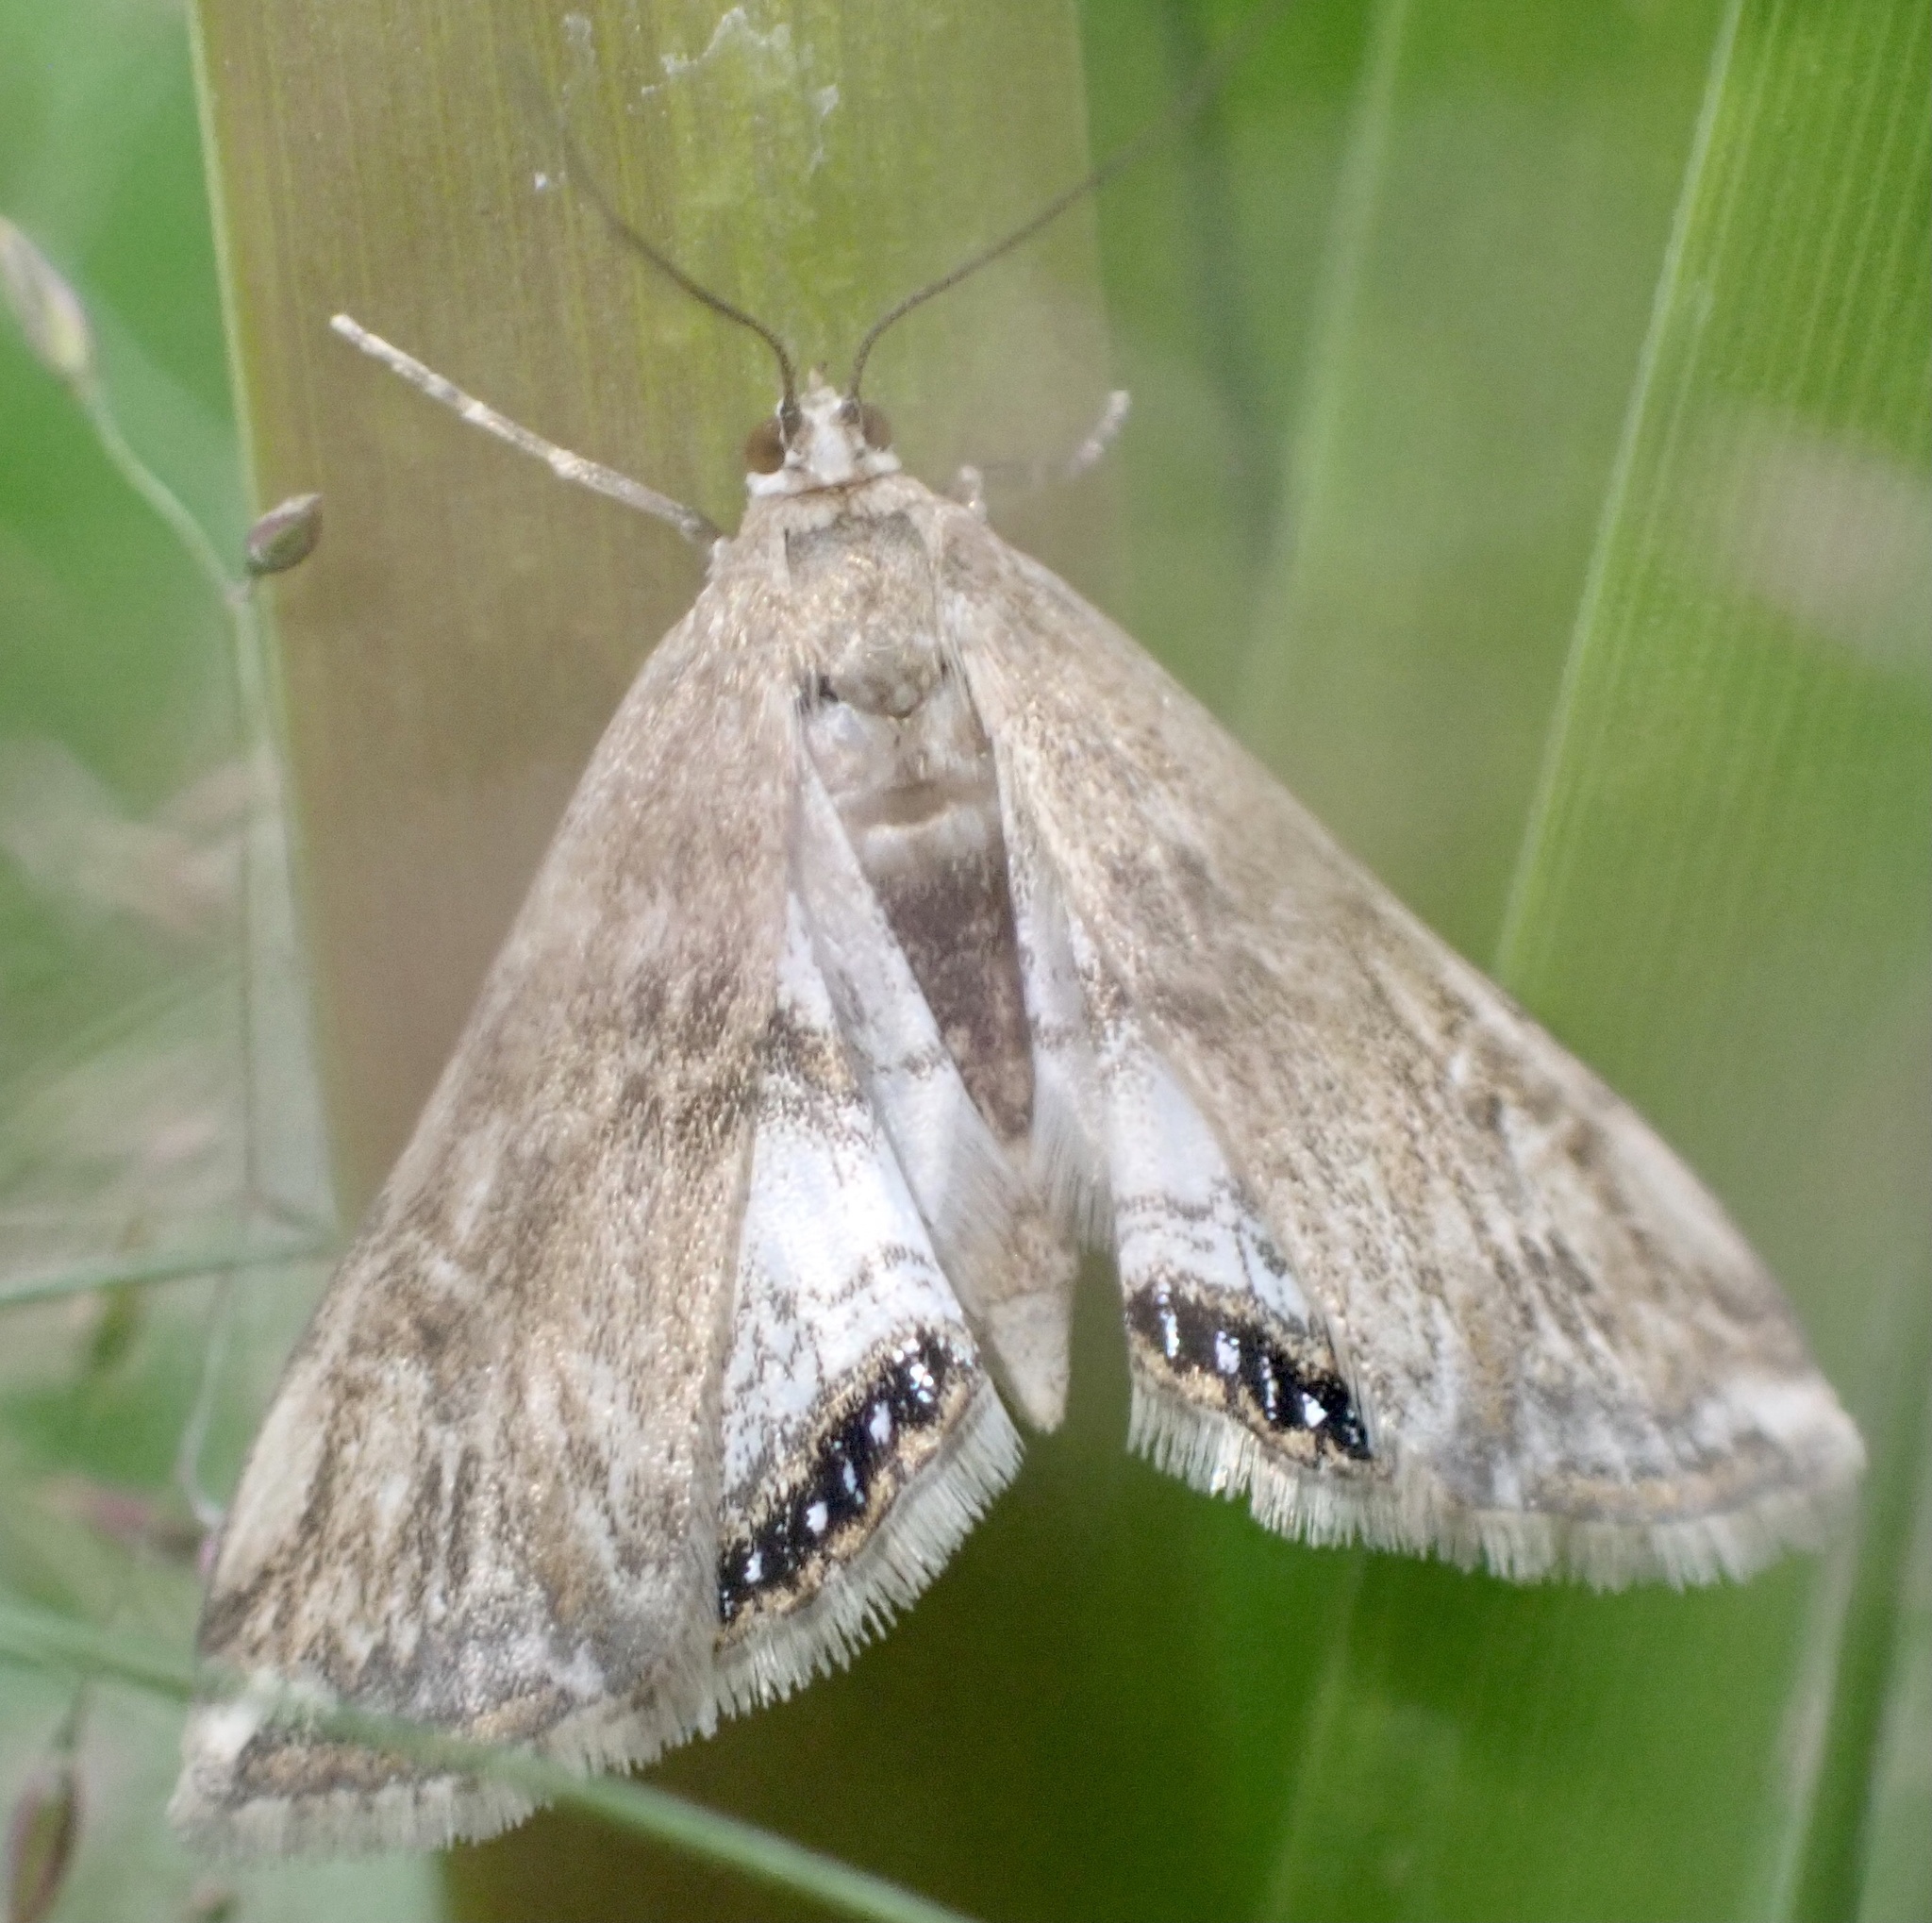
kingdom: Animalia
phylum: Arthropoda
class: Insecta
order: Lepidoptera
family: Crambidae
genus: Cataclysta
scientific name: Cataclysta lemnata
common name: Small china-mark
